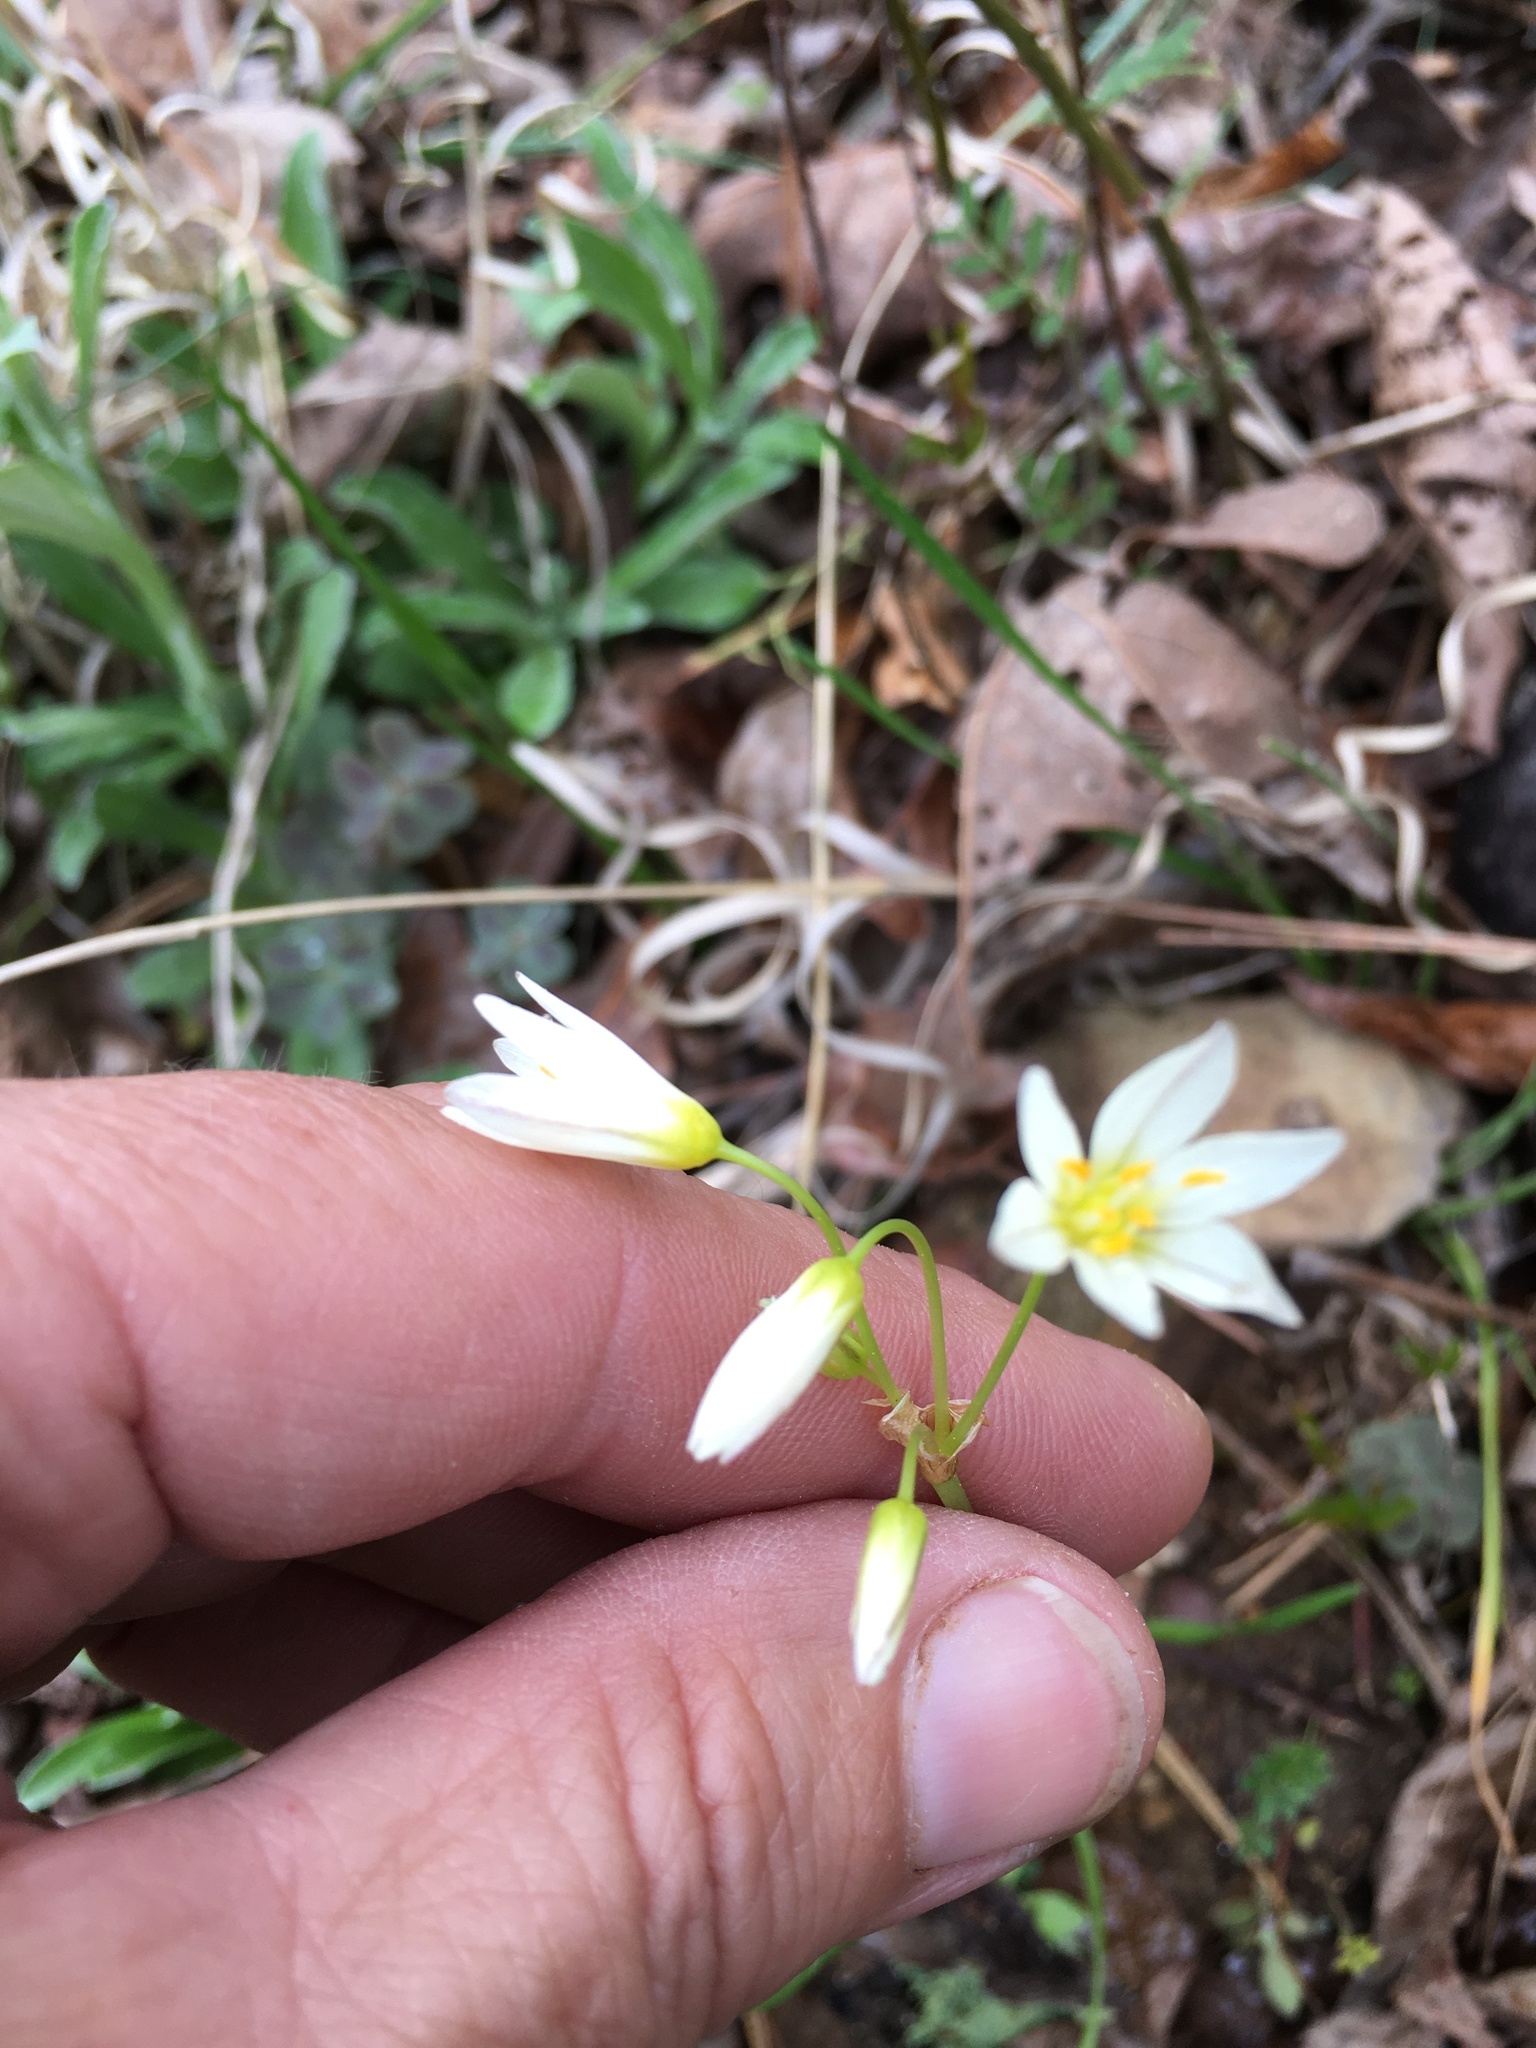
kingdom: Plantae
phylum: Tracheophyta
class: Liliopsida
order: Asparagales
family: Amaryllidaceae
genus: Nothoscordum
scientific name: Nothoscordum bivalve
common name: Crow-poison
